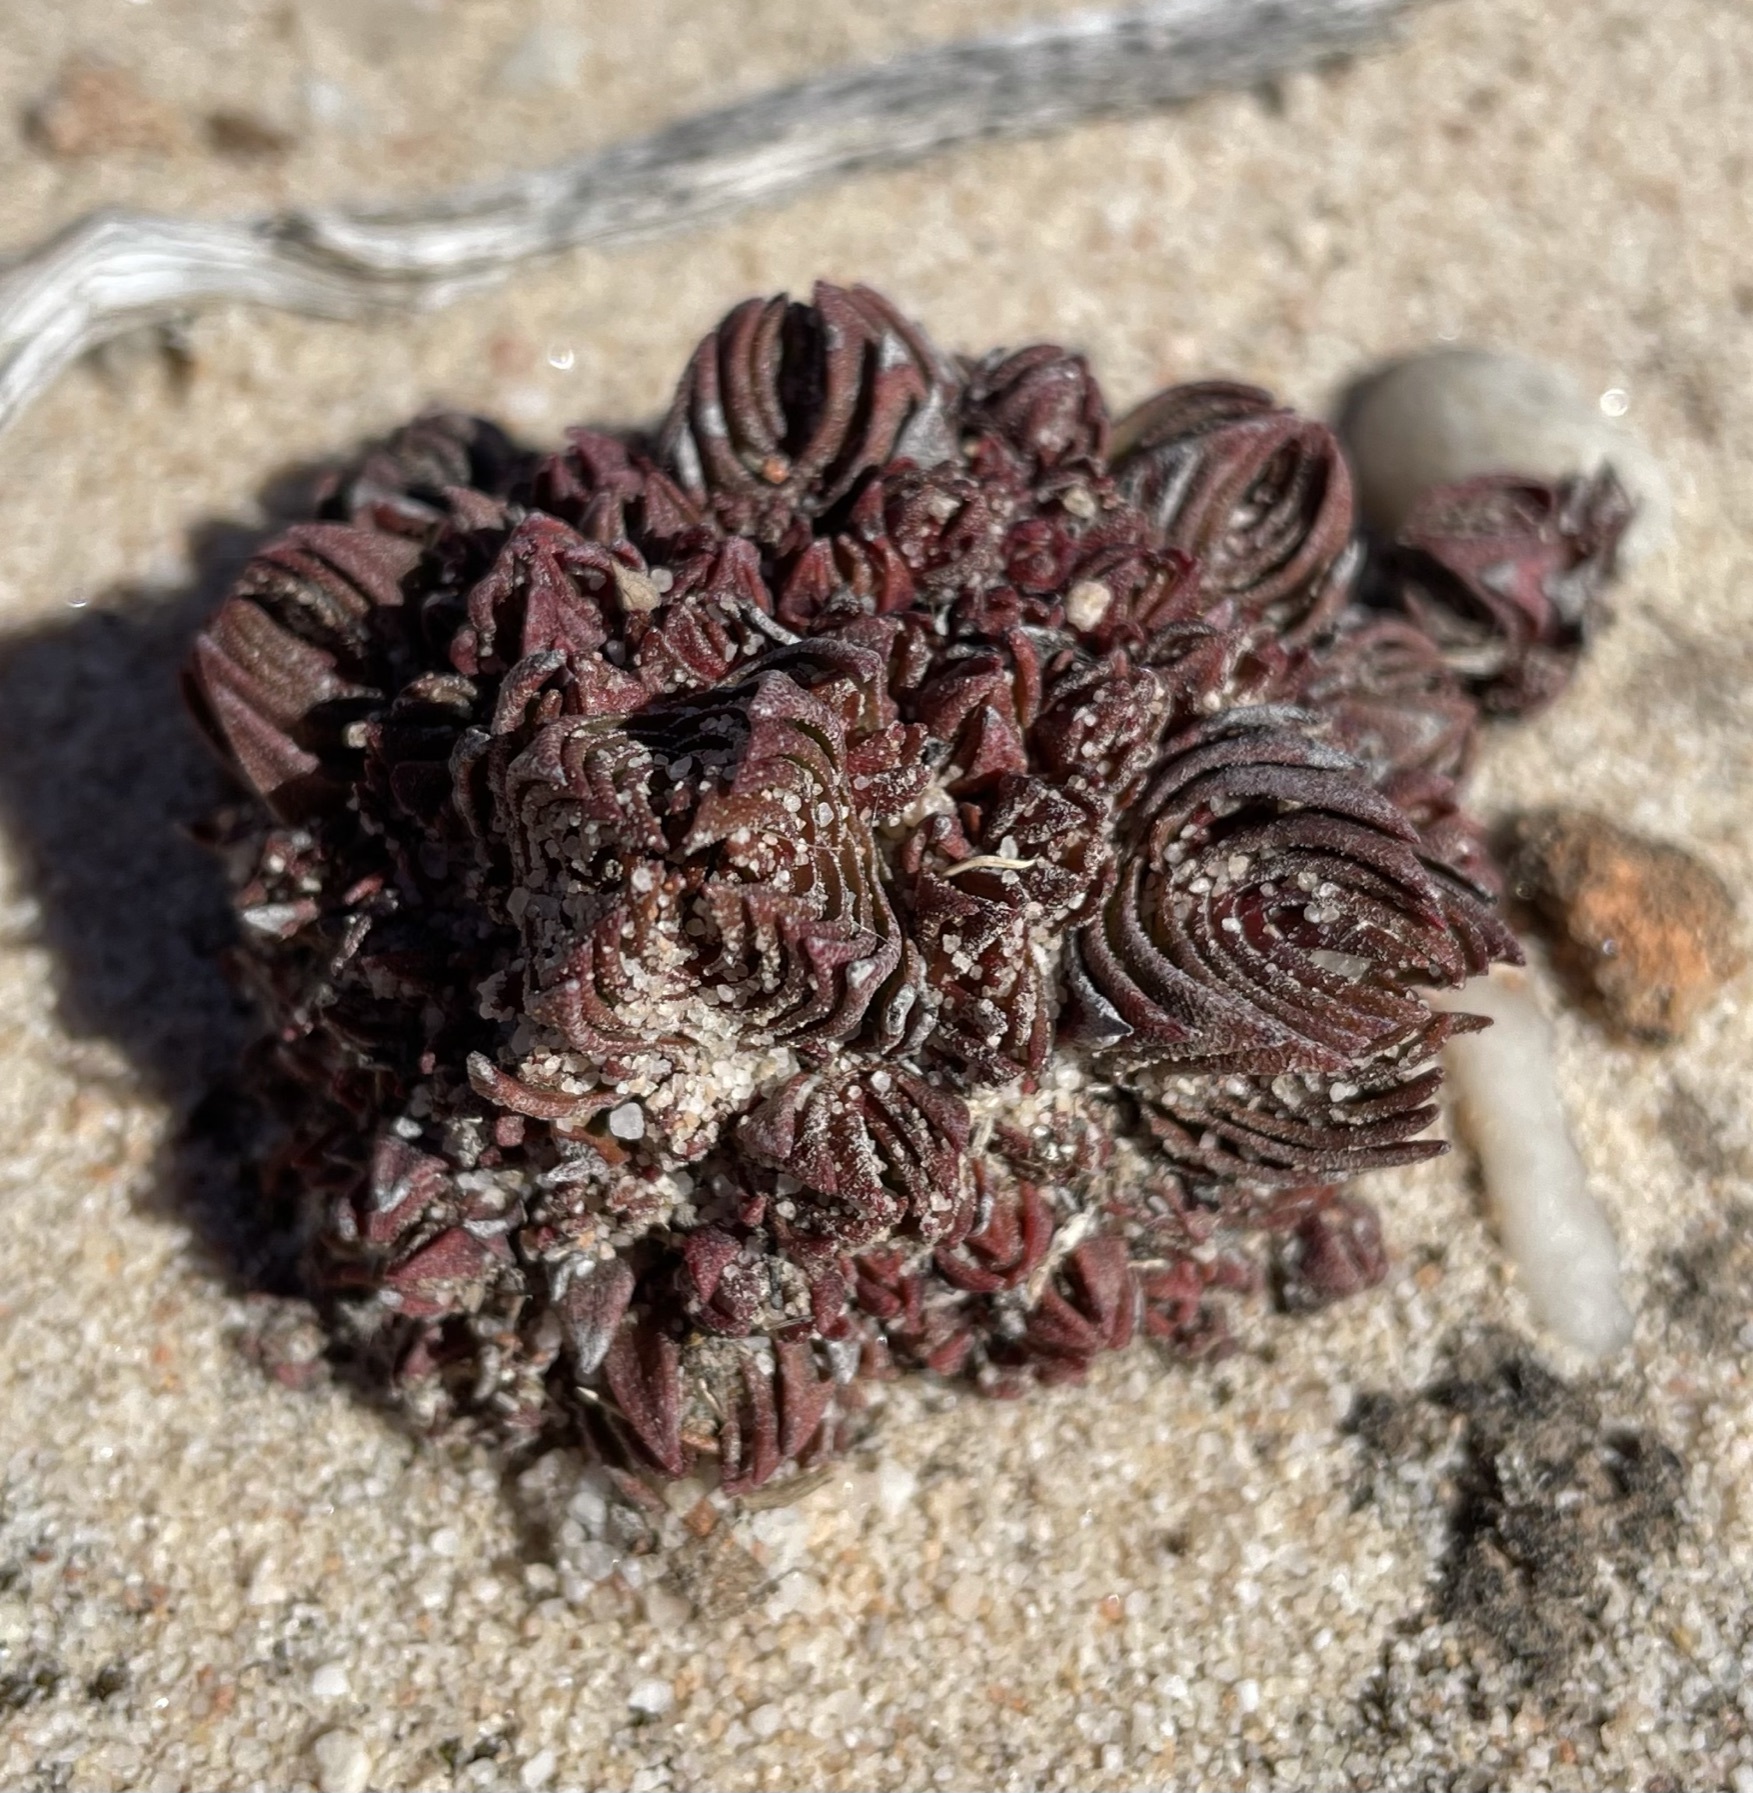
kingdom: Plantae
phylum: Tracheophyta
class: Magnoliopsida
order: Saxifragales
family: Crassulaceae
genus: Crassula
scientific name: Crassula alpestris
